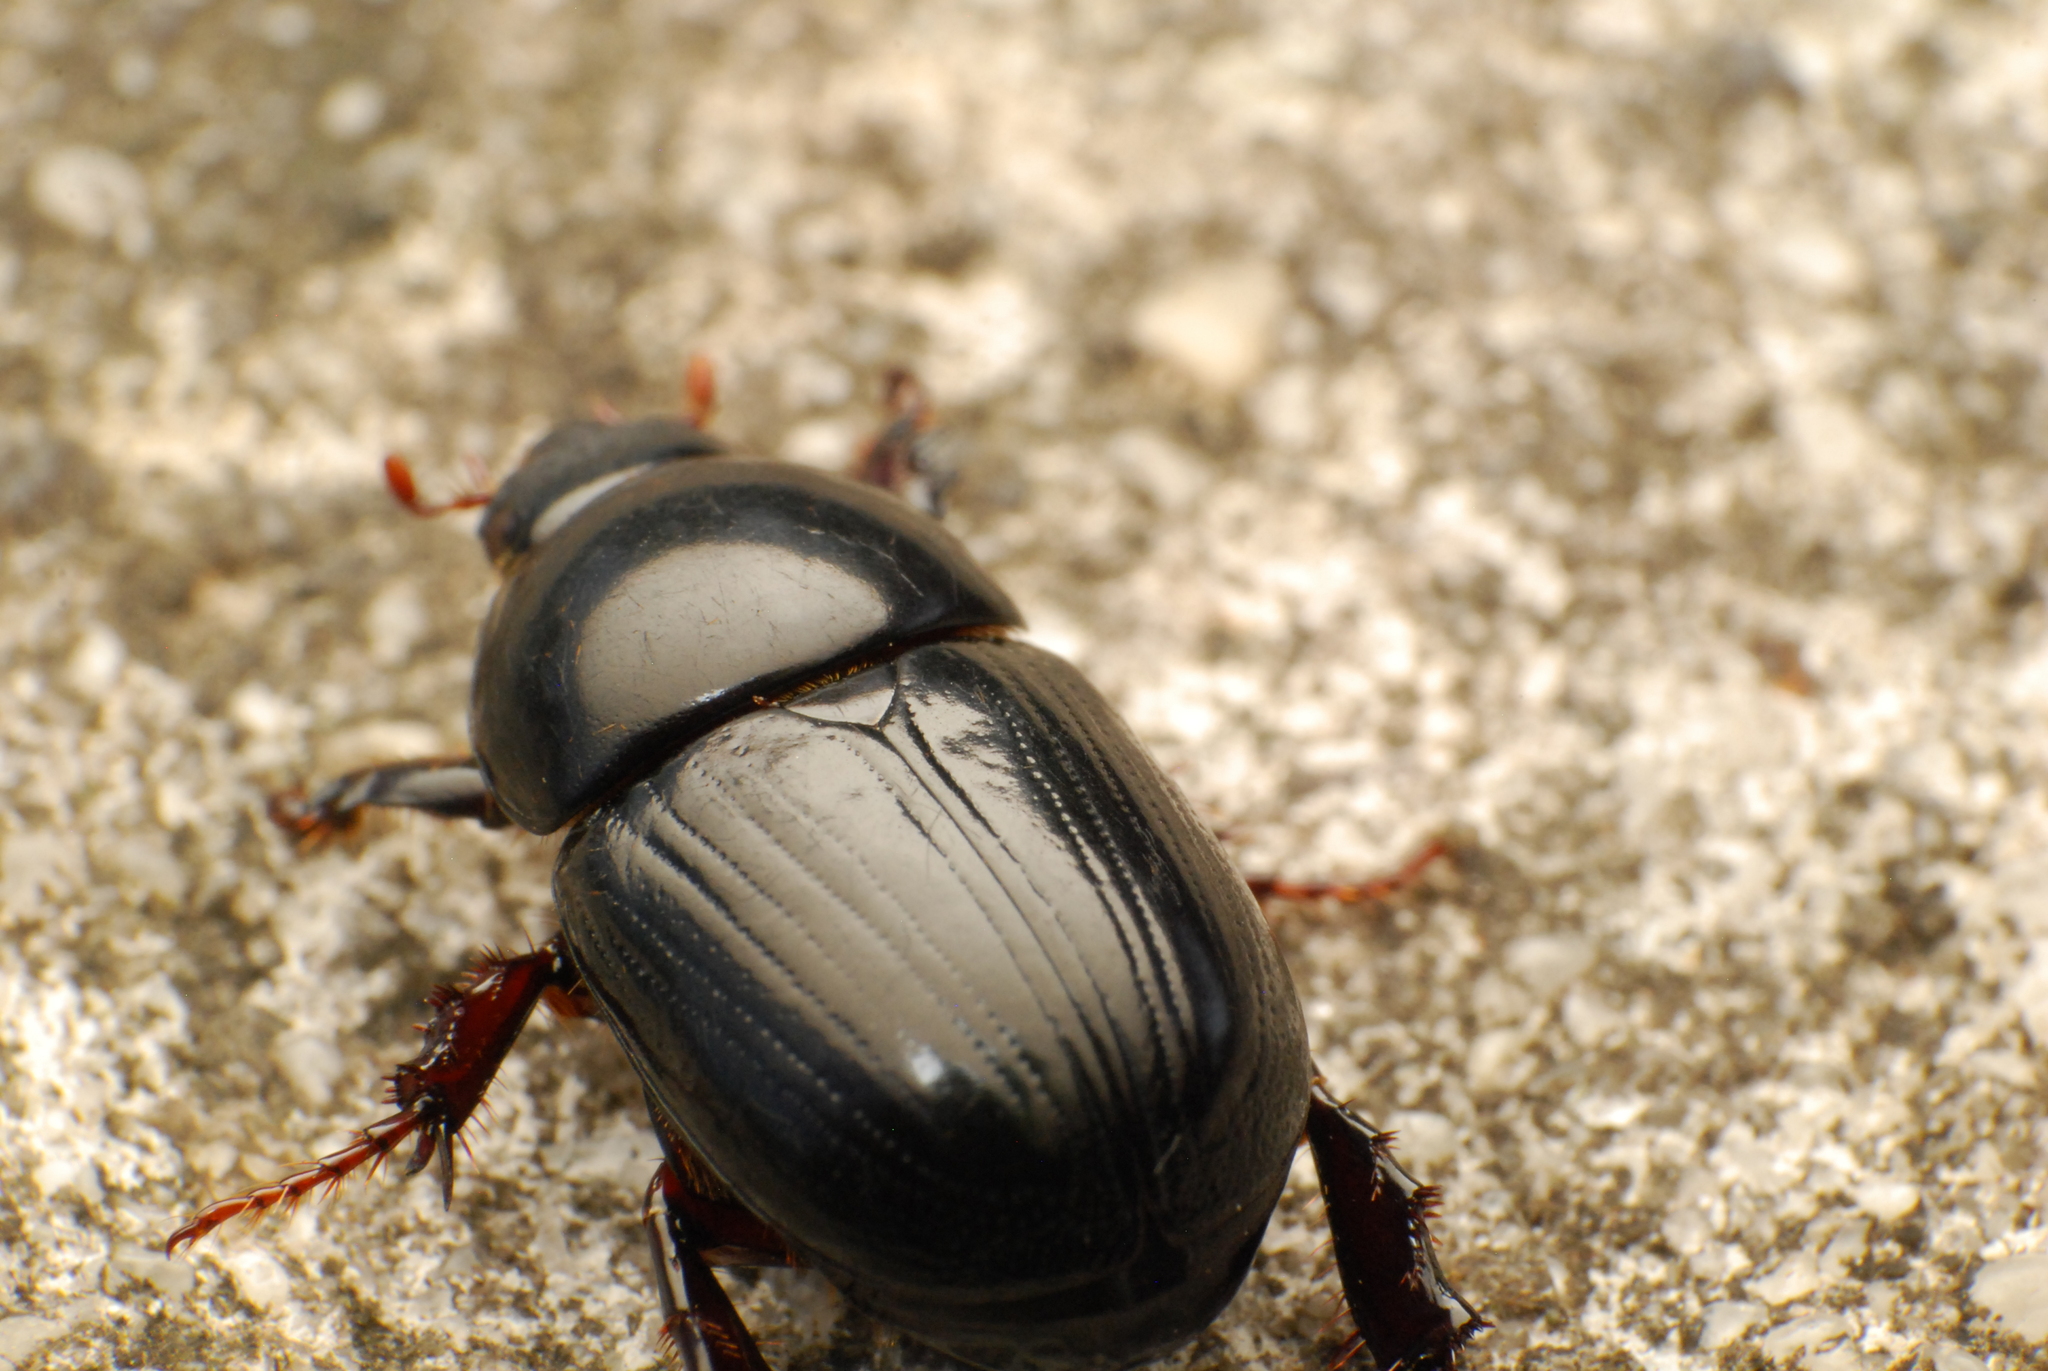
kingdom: Animalia
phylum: Arthropoda
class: Insecta
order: Coleoptera
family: Scarabaeidae
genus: Heteronychus
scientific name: Heteronychus arator
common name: African black beetle
